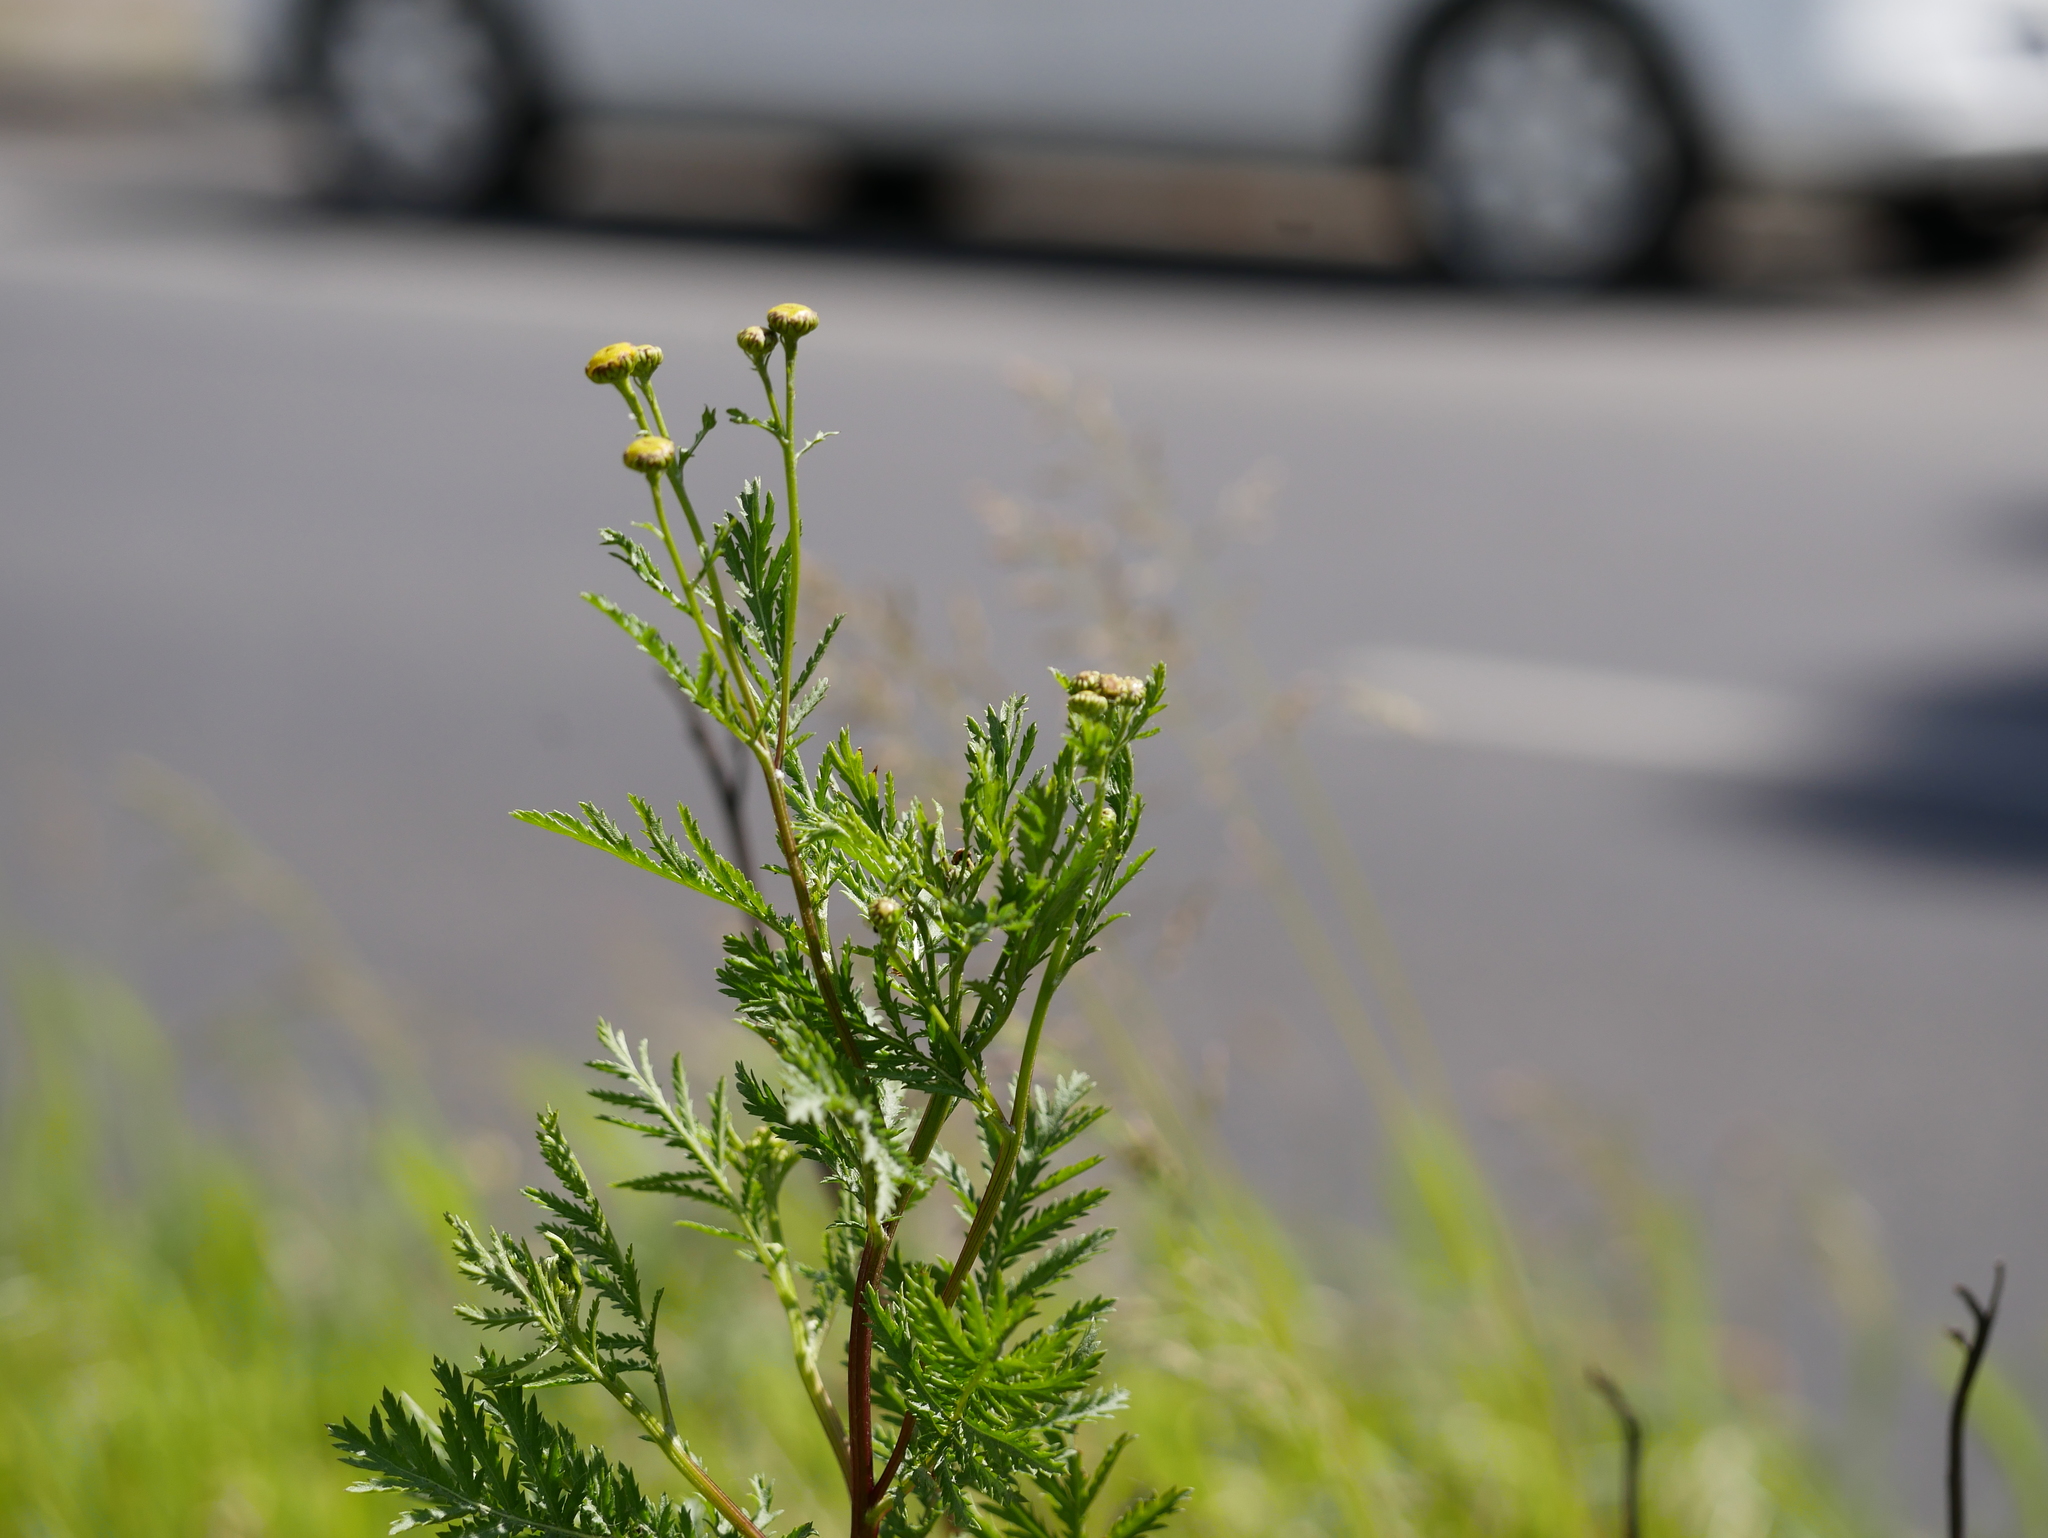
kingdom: Plantae
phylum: Tracheophyta
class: Magnoliopsida
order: Asterales
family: Asteraceae
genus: Tanacetum
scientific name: Tanacetum vulgare
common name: Common tansy
